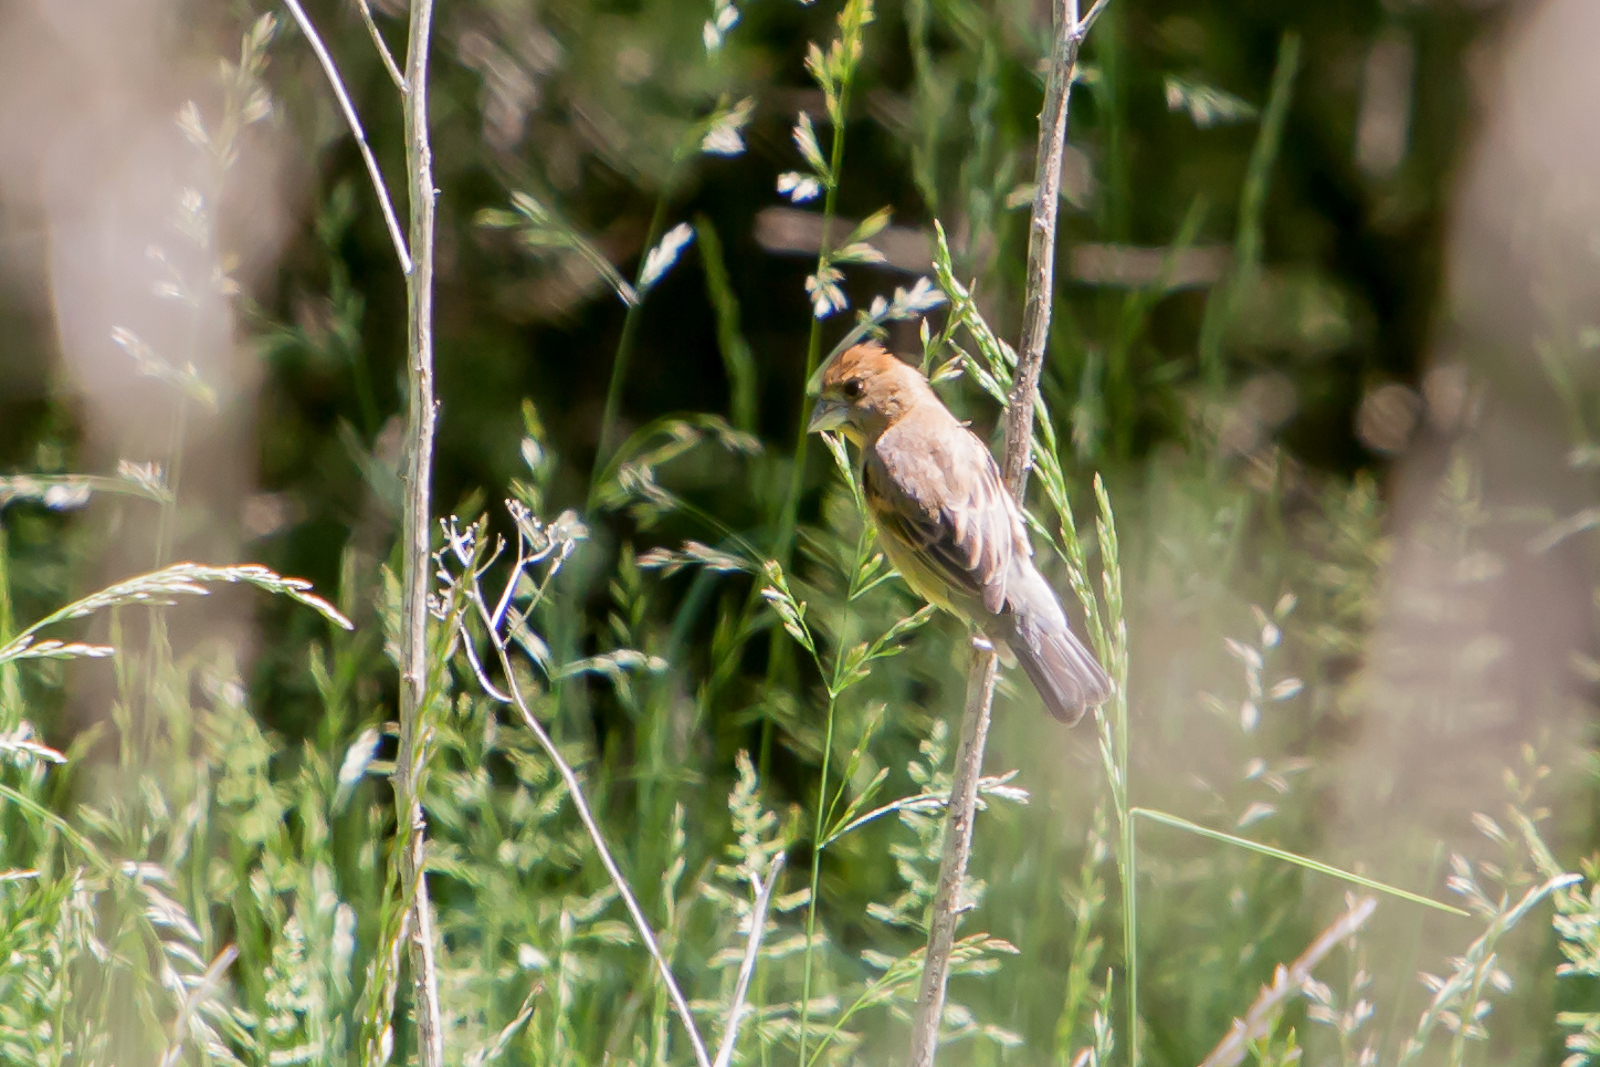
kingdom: Animalia
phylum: Chordata
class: Aves
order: Passeriformes
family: Cardinalidae
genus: Passerina
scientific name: Passerina caerulea
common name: Blue grosbeak
